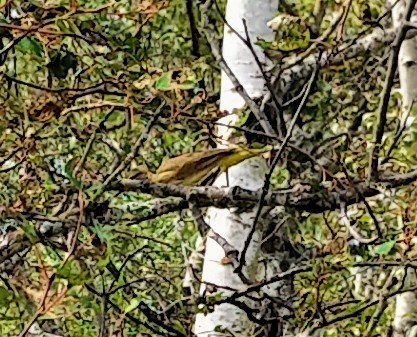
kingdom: Animalia
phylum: Chordata
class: Aves
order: Passeriformes
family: Parulidae
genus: Setophaga
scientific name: Setophaga palmarum
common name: Palm warbler
